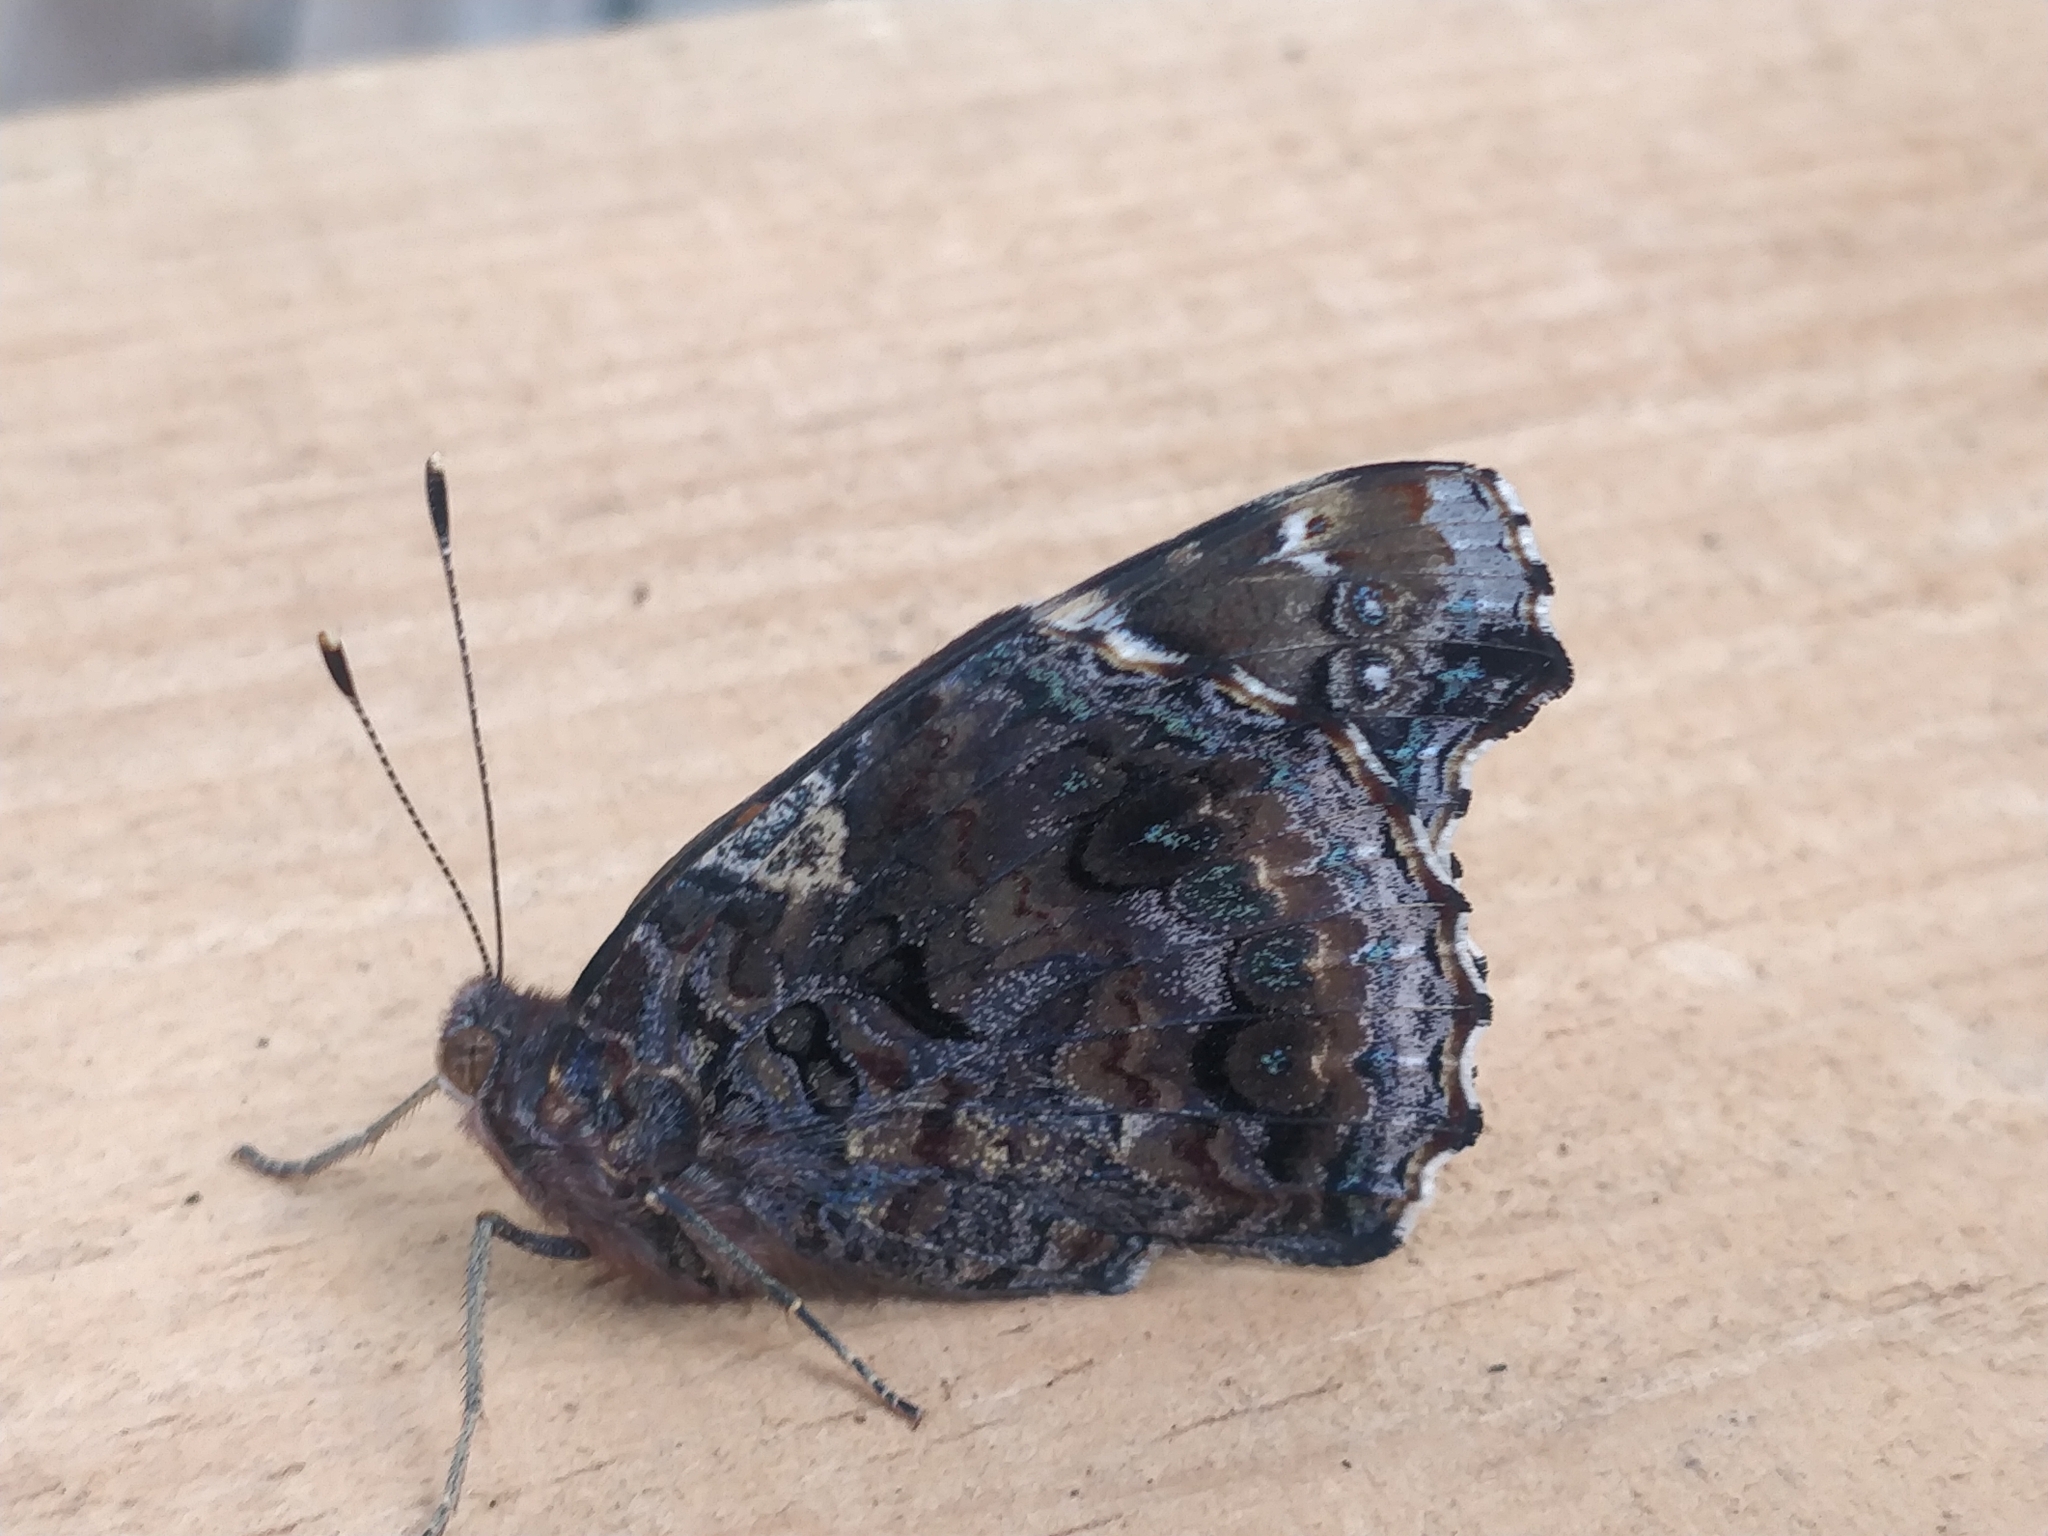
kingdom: Animalia
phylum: Arthropoda
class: Insecta
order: Lepidoptera
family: Nymphalidae
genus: Vanessa
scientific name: Vanessa atalanta
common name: Red admiral
